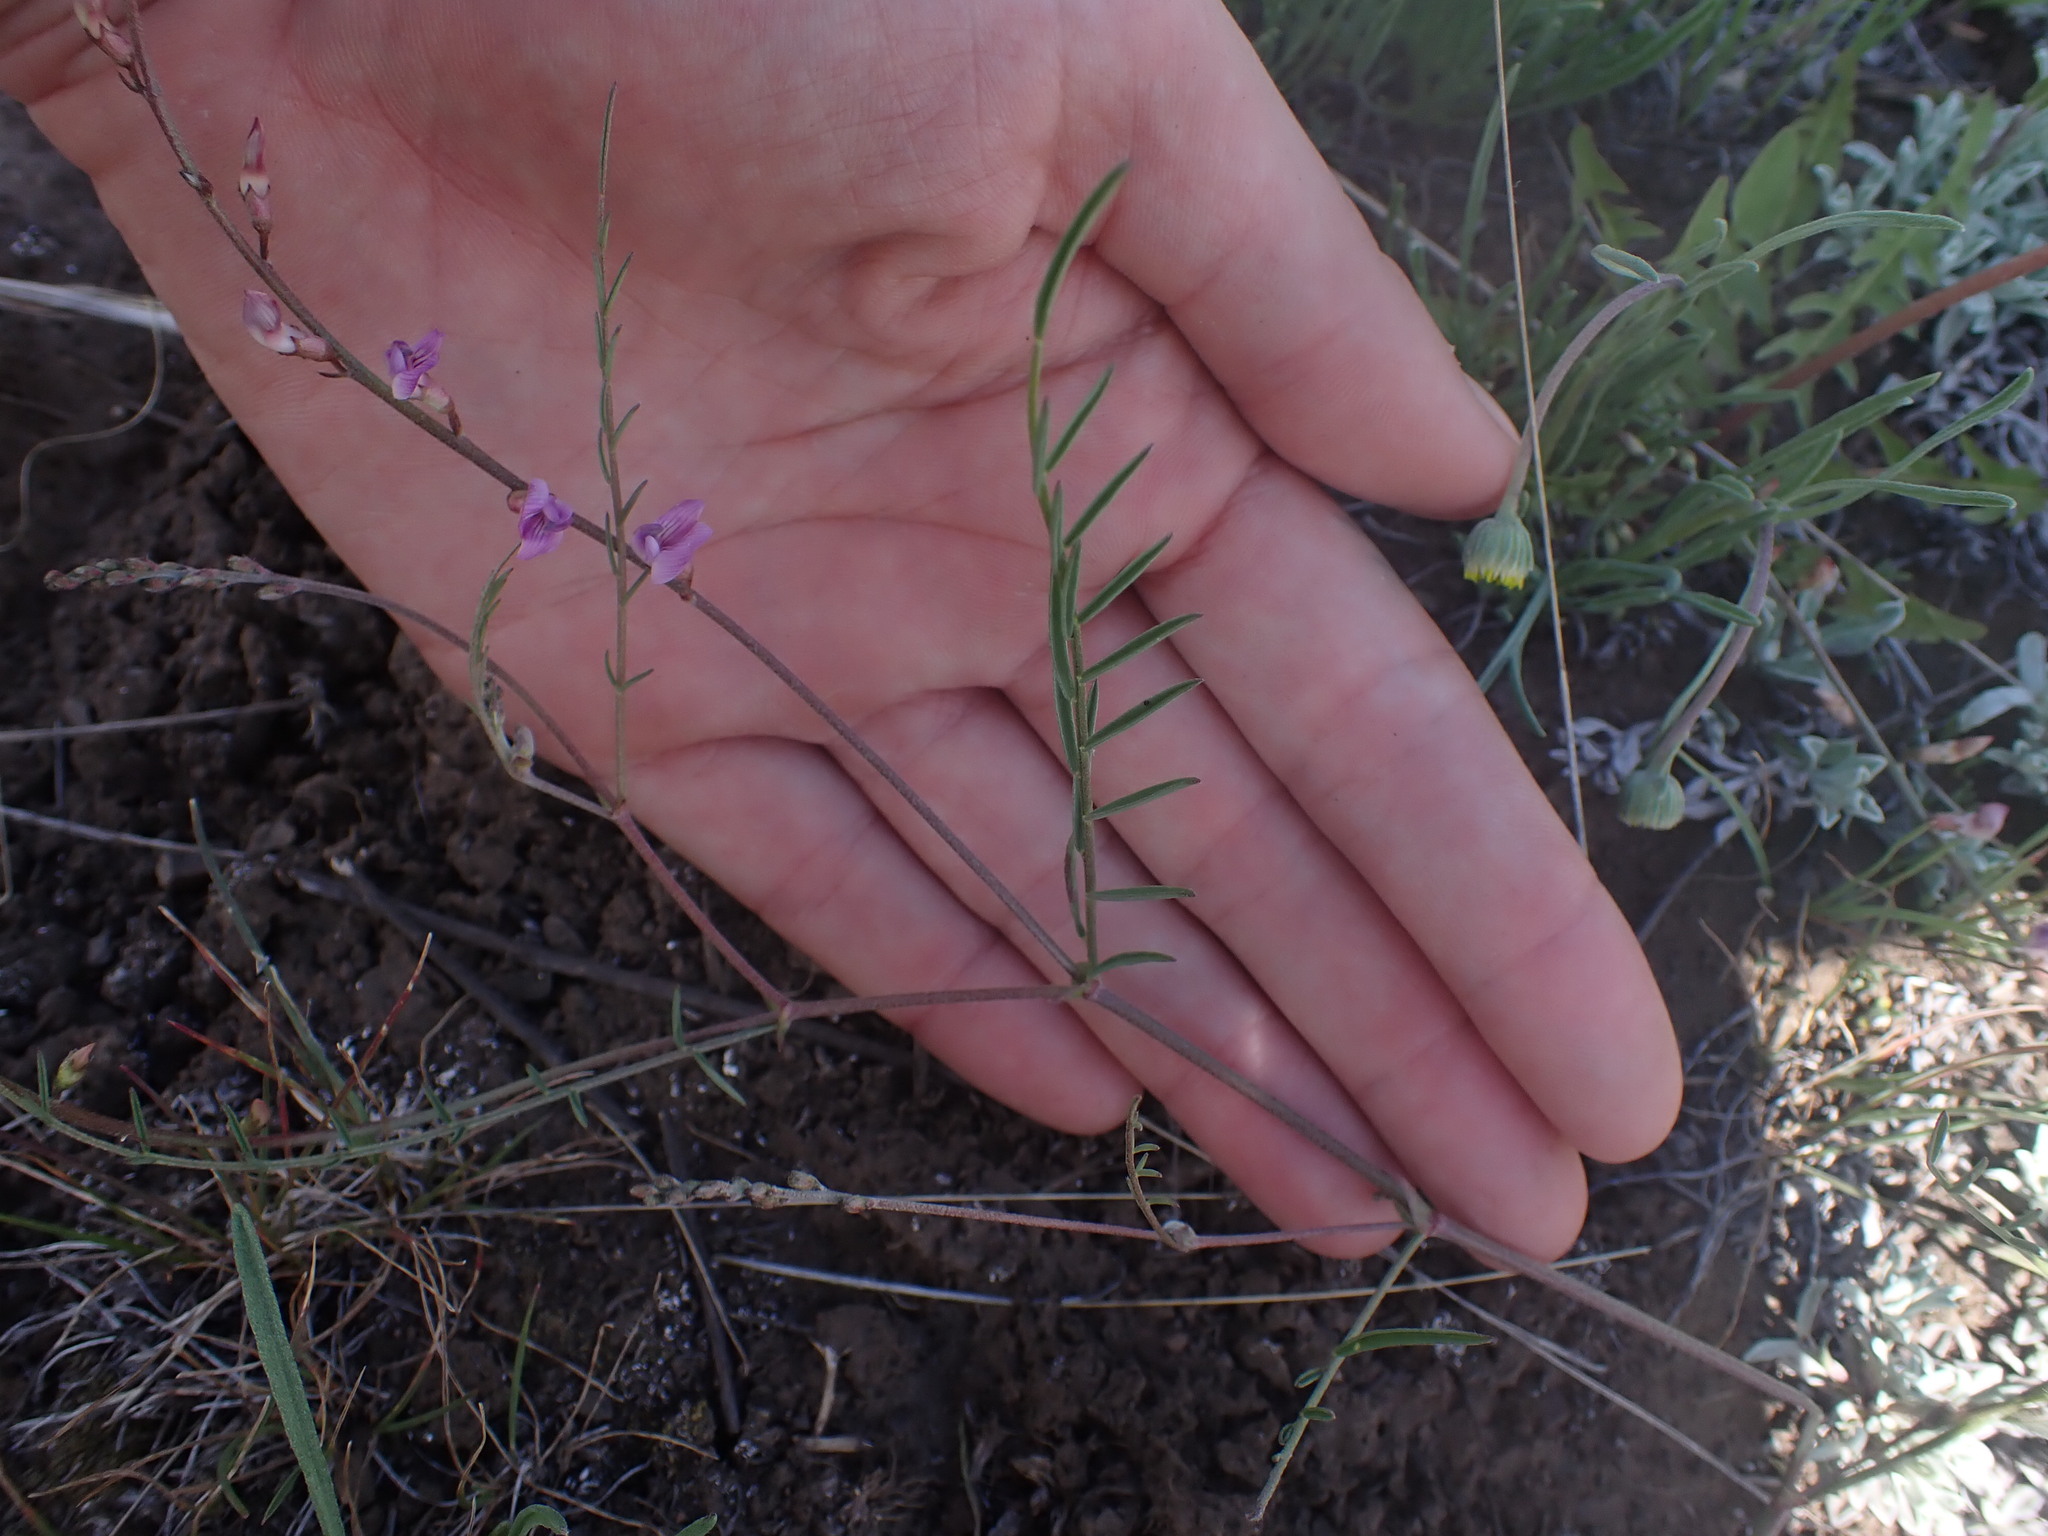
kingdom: Plantae
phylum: Tracheophyta
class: Magnoliopsida
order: Fabales
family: Fabaceae
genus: Astragalus
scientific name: Astragalus miser
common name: Timber milkvetch
